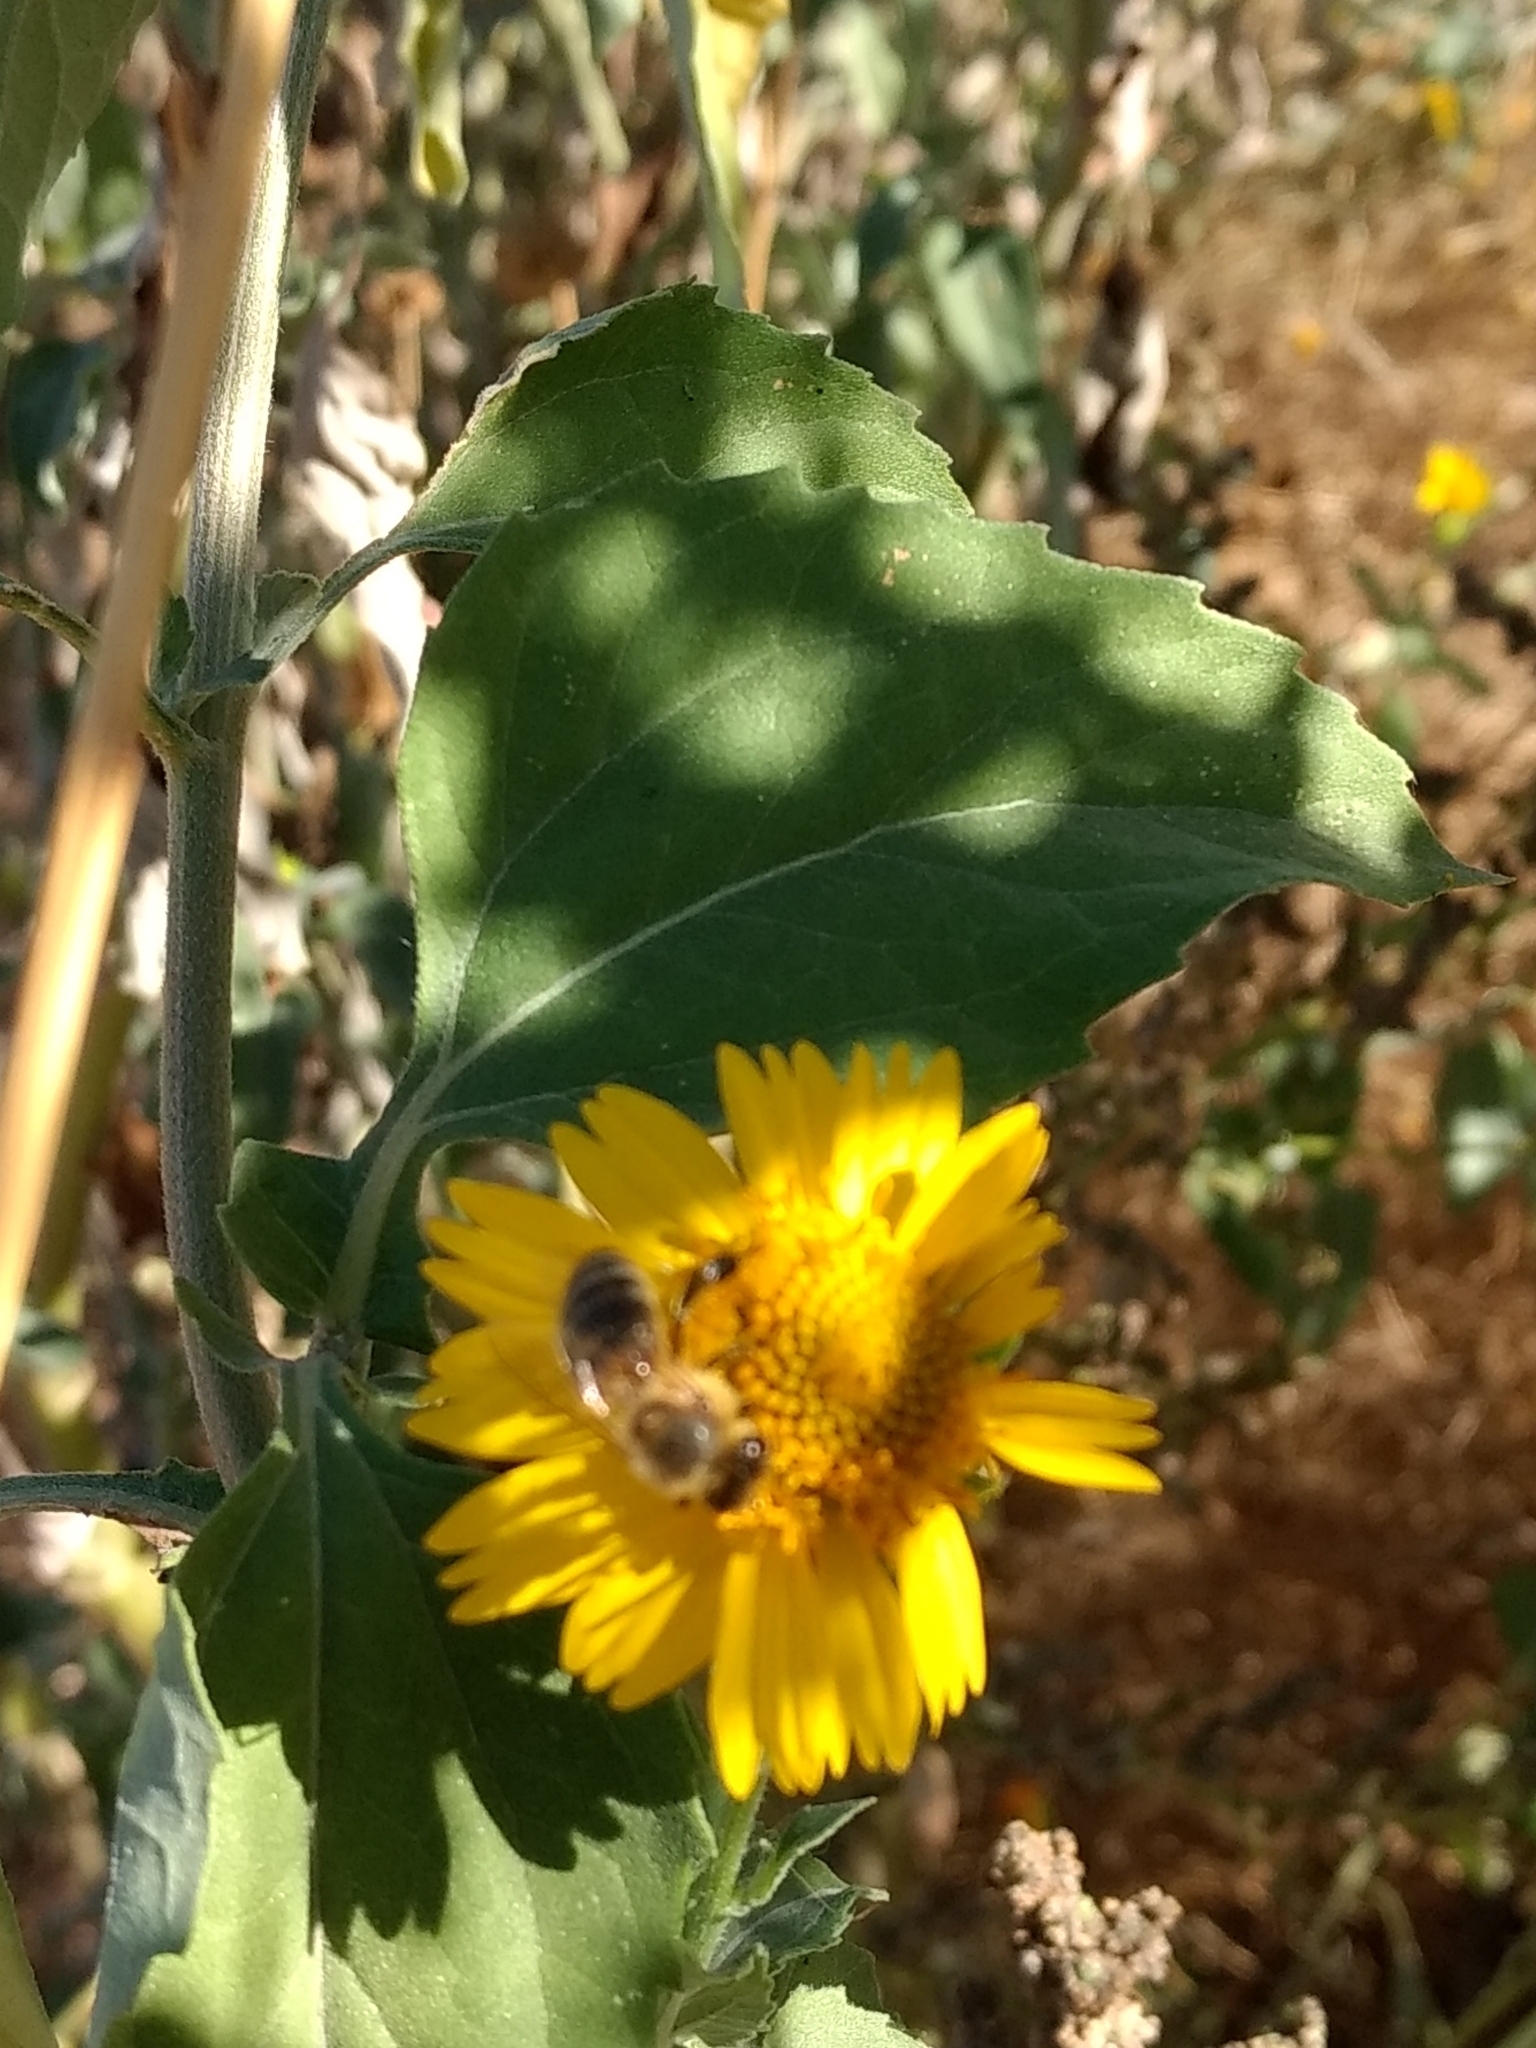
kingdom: Animalia
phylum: Arthropoda
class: Insecta
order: Hymenoptera
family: Apidae
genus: Apis
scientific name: Apis mellifera
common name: Honey bee
